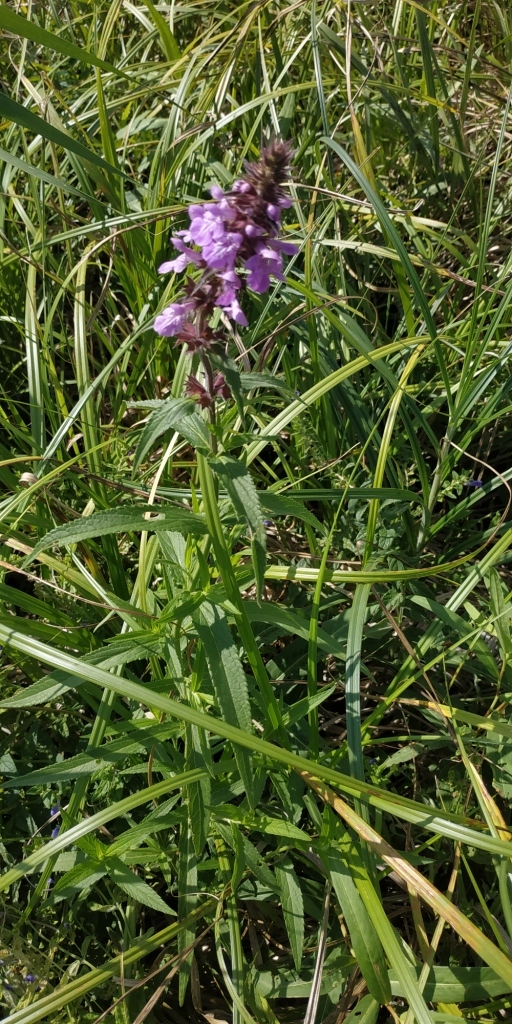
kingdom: Plantae
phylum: Tracheophyta
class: Magnoliopsida
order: Lamiales
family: Lamiaceae
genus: Stachys
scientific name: Stachys palustris
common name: Marsh woundwort
